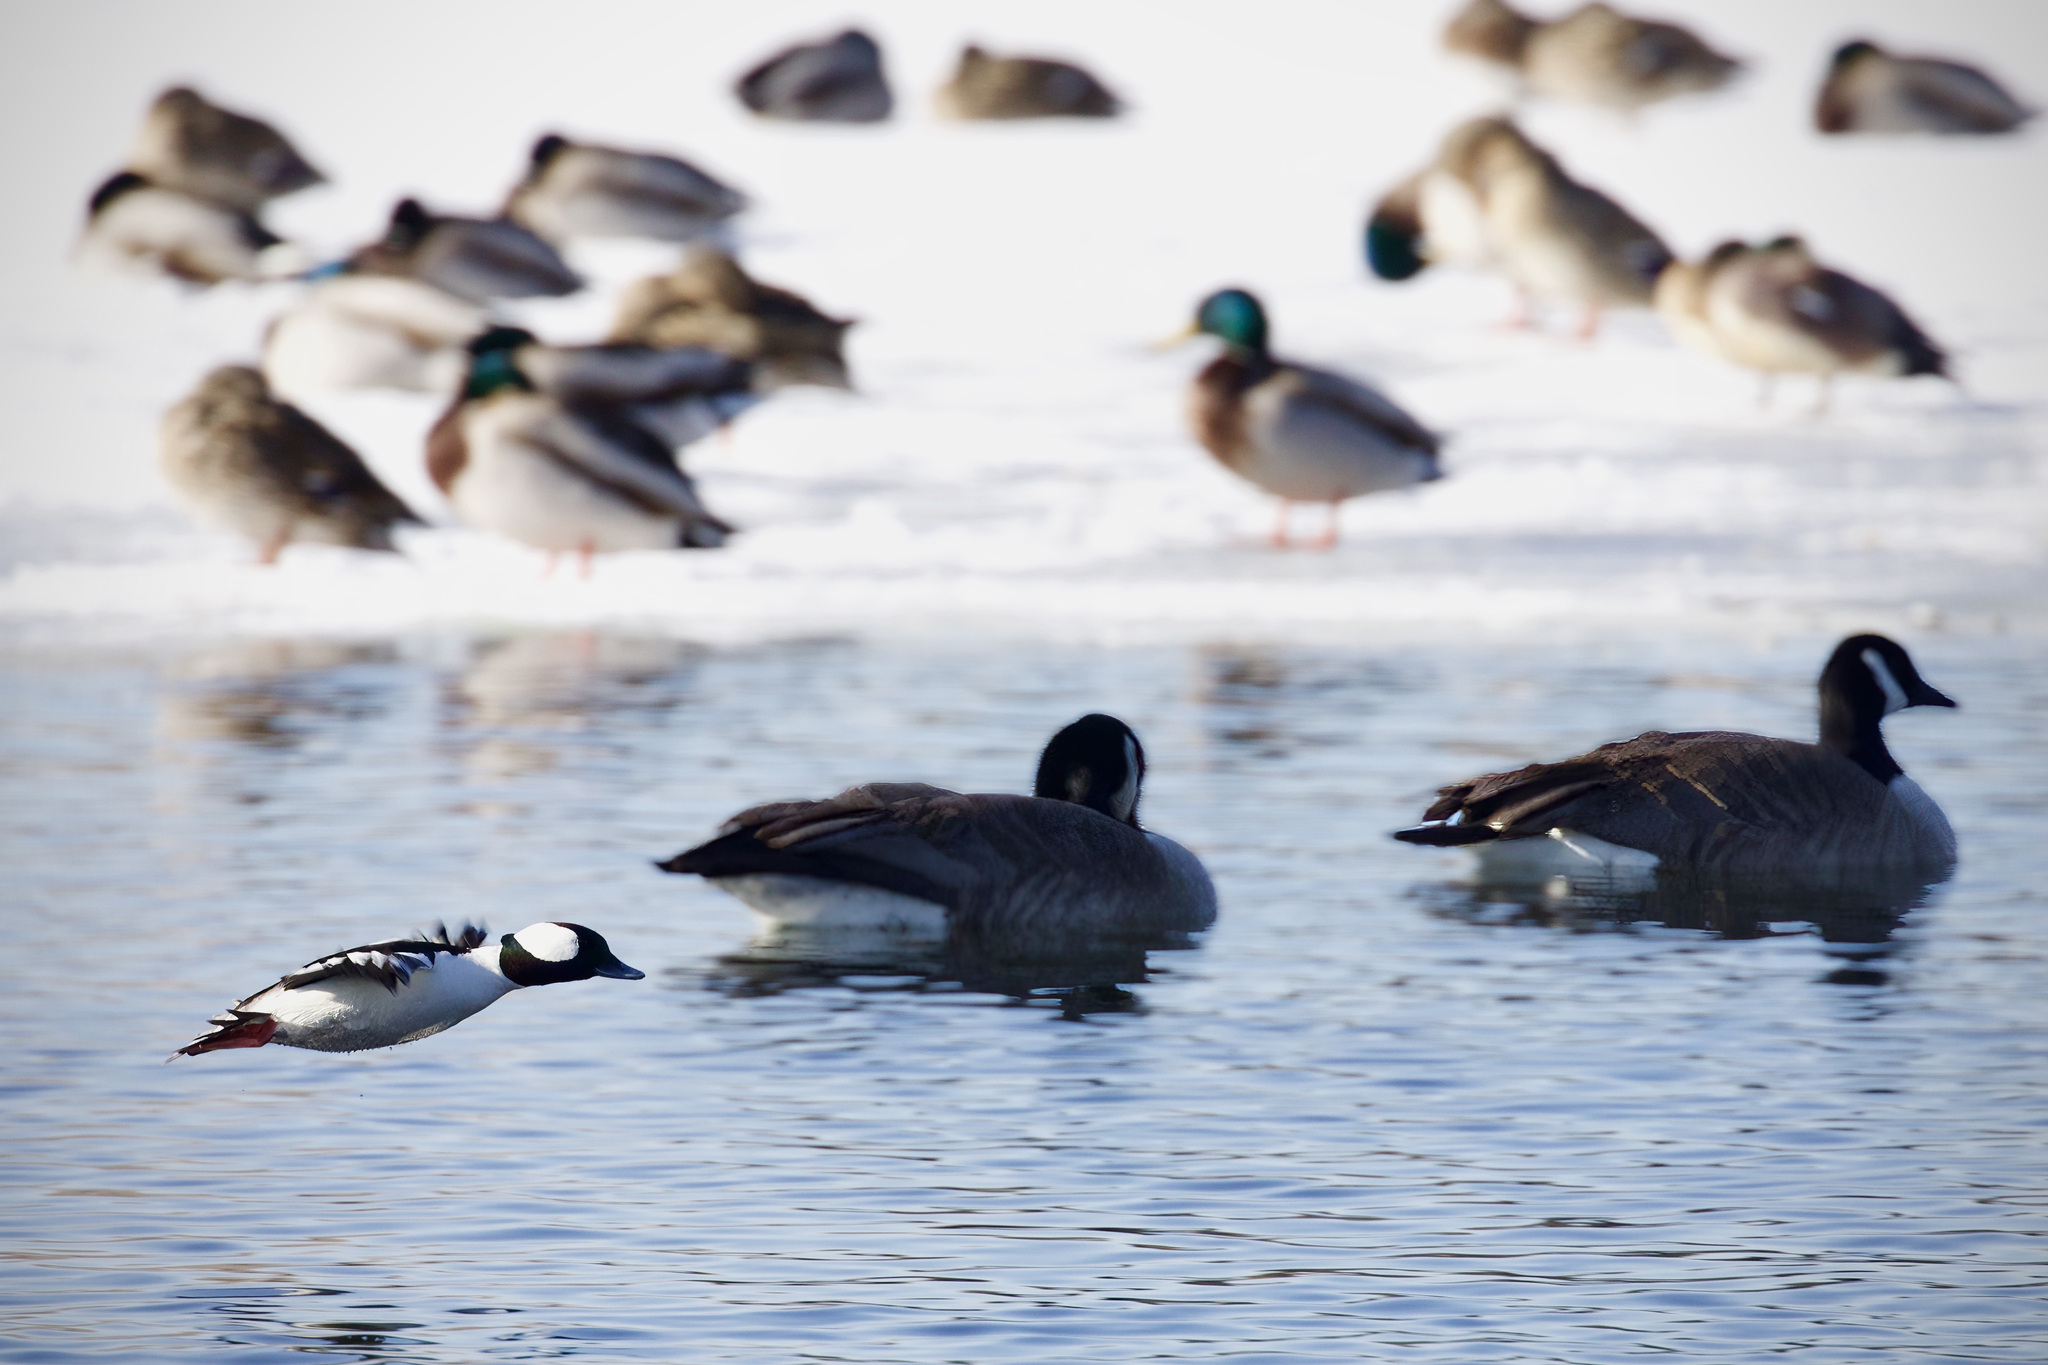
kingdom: Animalia
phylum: Chordata
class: Aves
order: Anseriformes
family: Anatidae
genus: Bucephala
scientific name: Bucephala albeola
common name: Bufflehead
